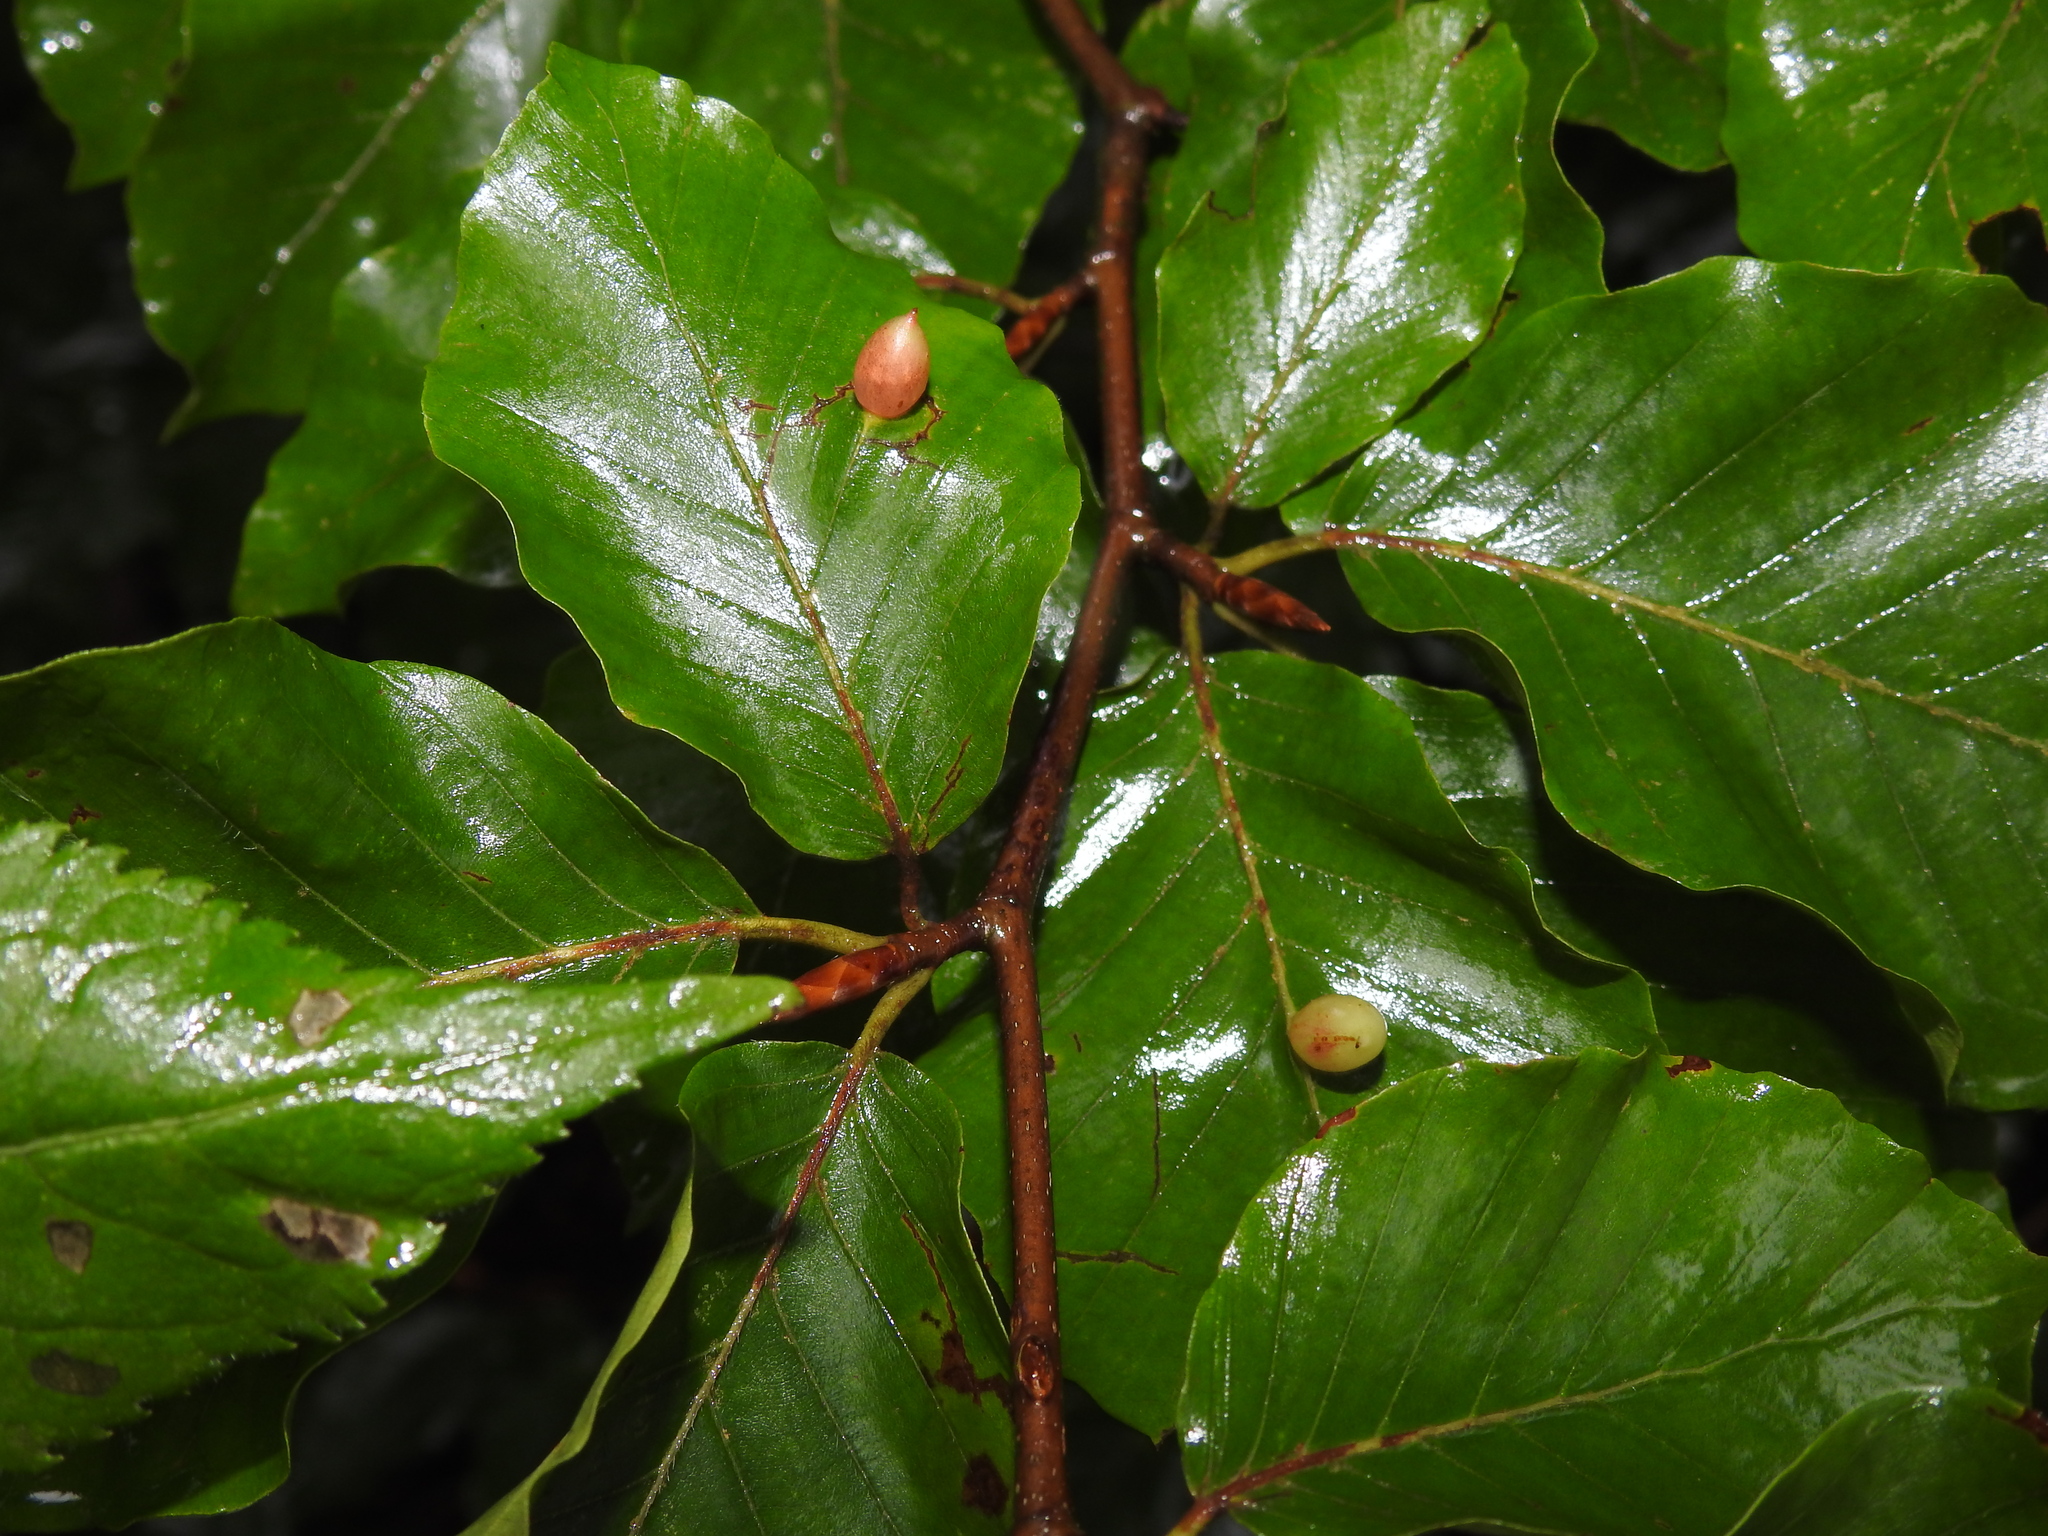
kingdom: Animalia
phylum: Arthropoda
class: Insecta
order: Diptera
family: Cecidomyiidae
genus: Mikiola
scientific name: Mikiola fagi
